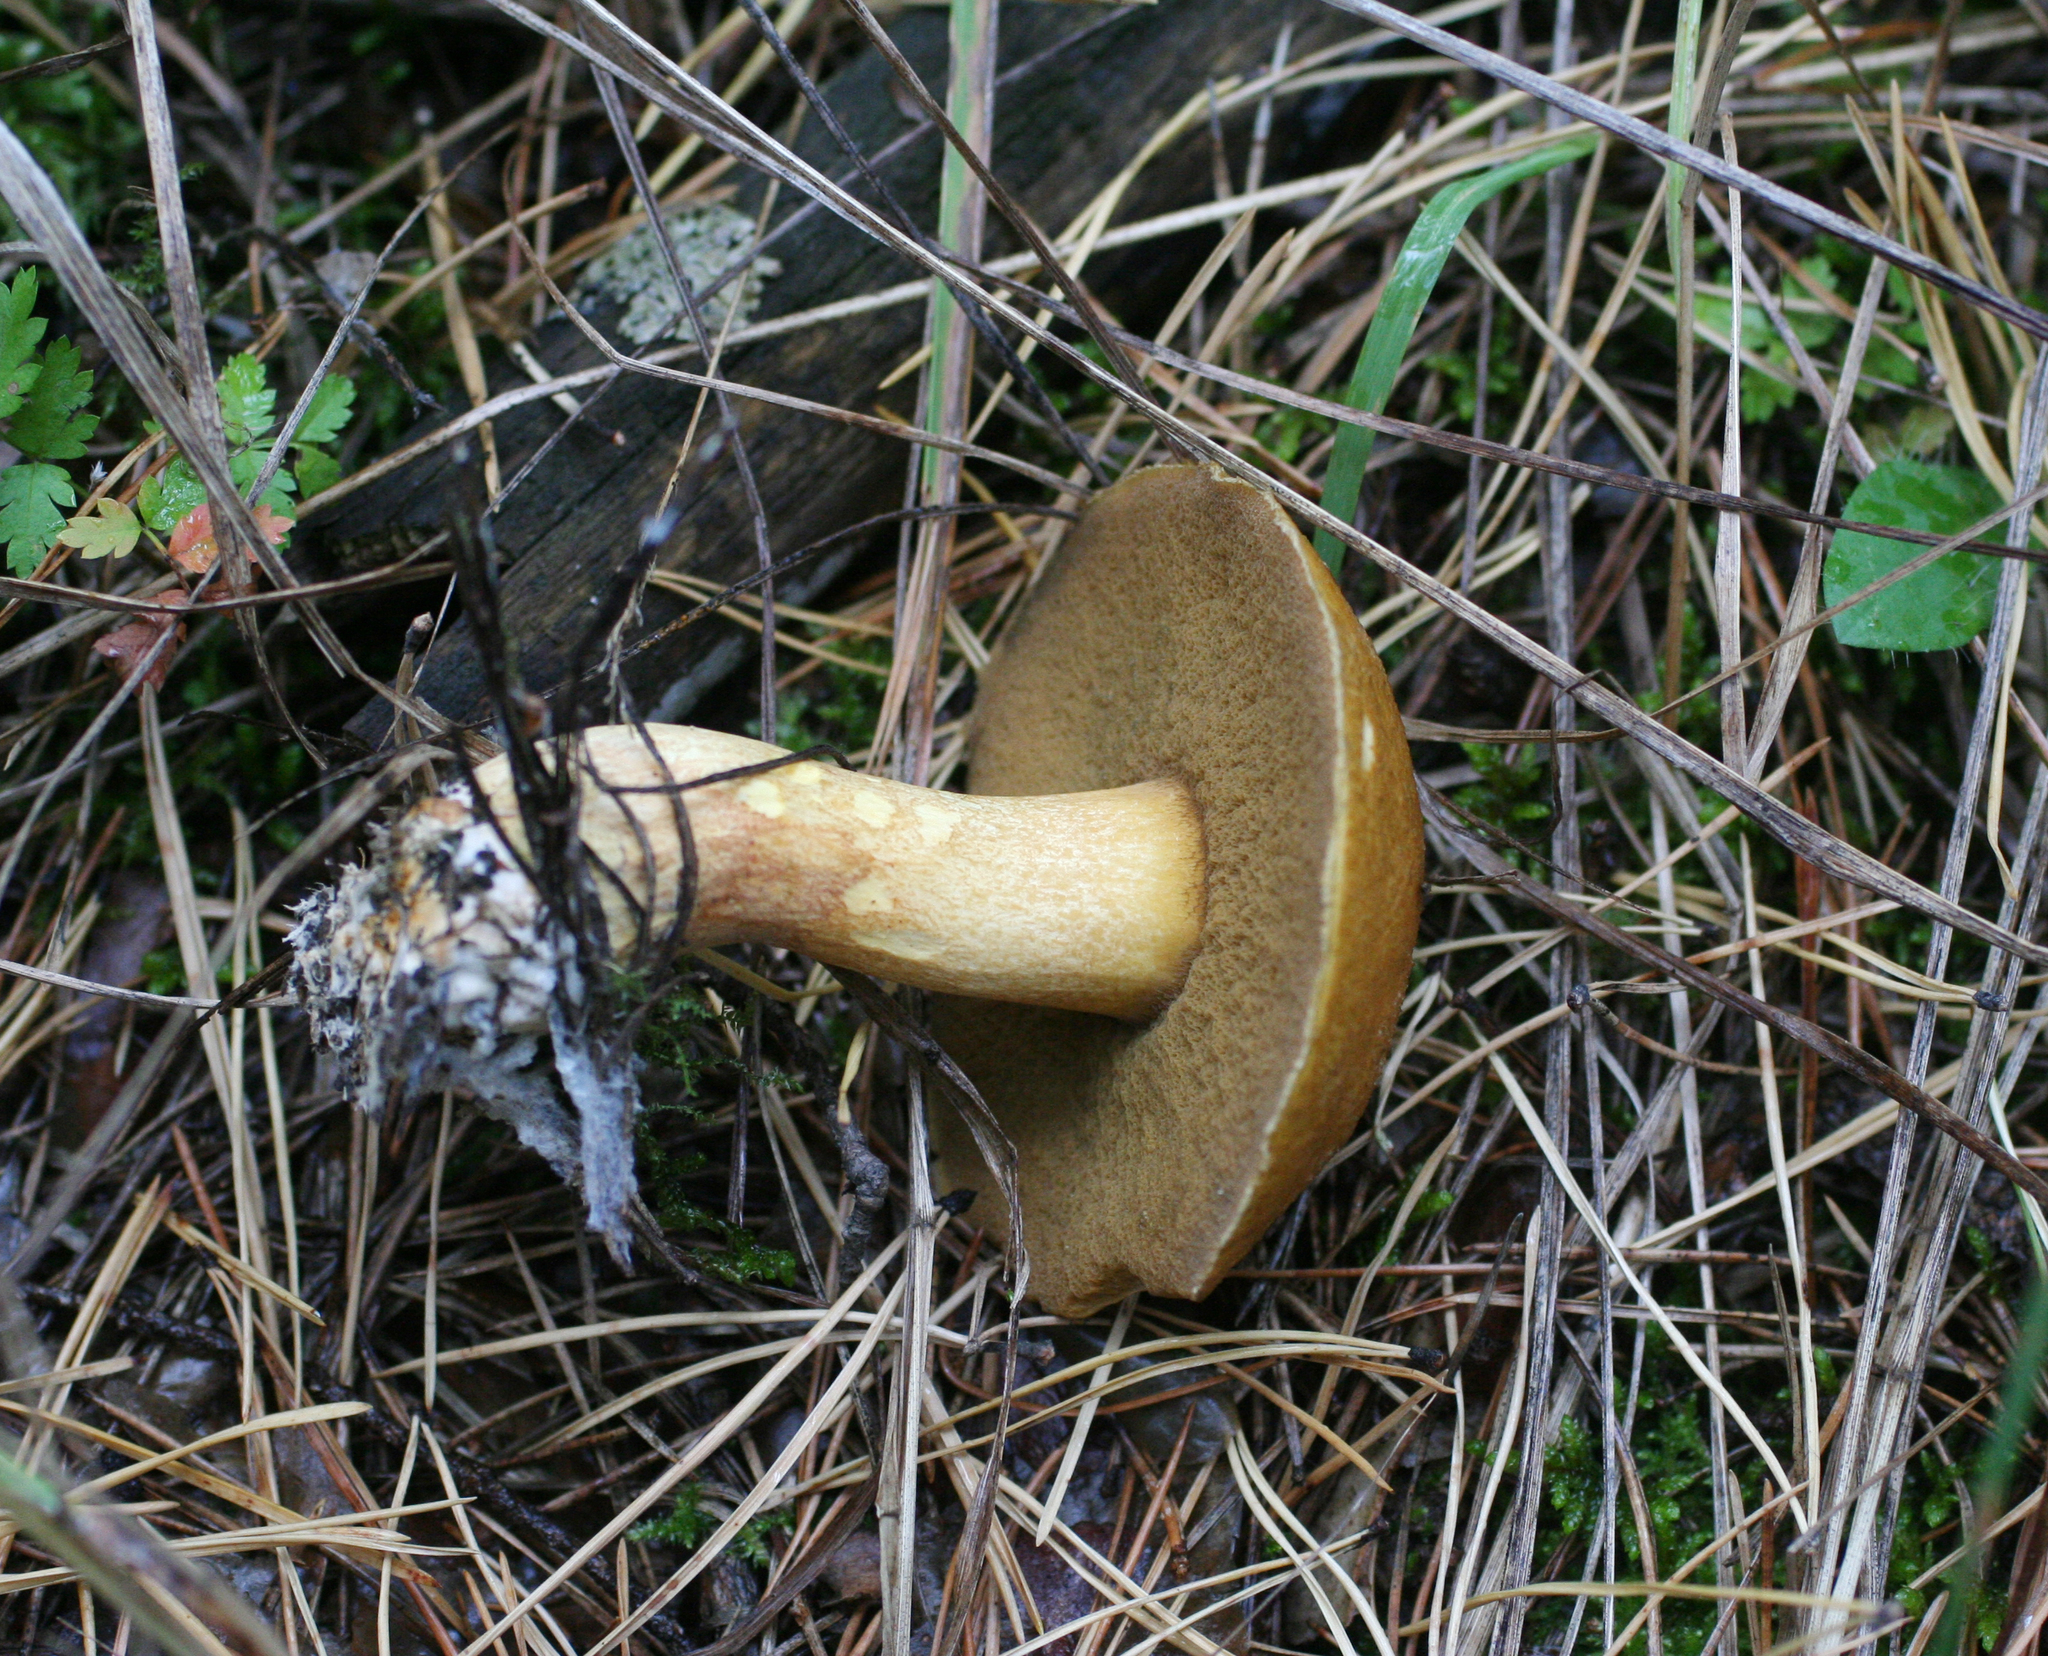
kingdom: Fungi
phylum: Basidiomycota
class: Agaricomycetes
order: Boletales
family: Suillaceae
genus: Suillus
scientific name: Suillus variegatus
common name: Velvet bolete
